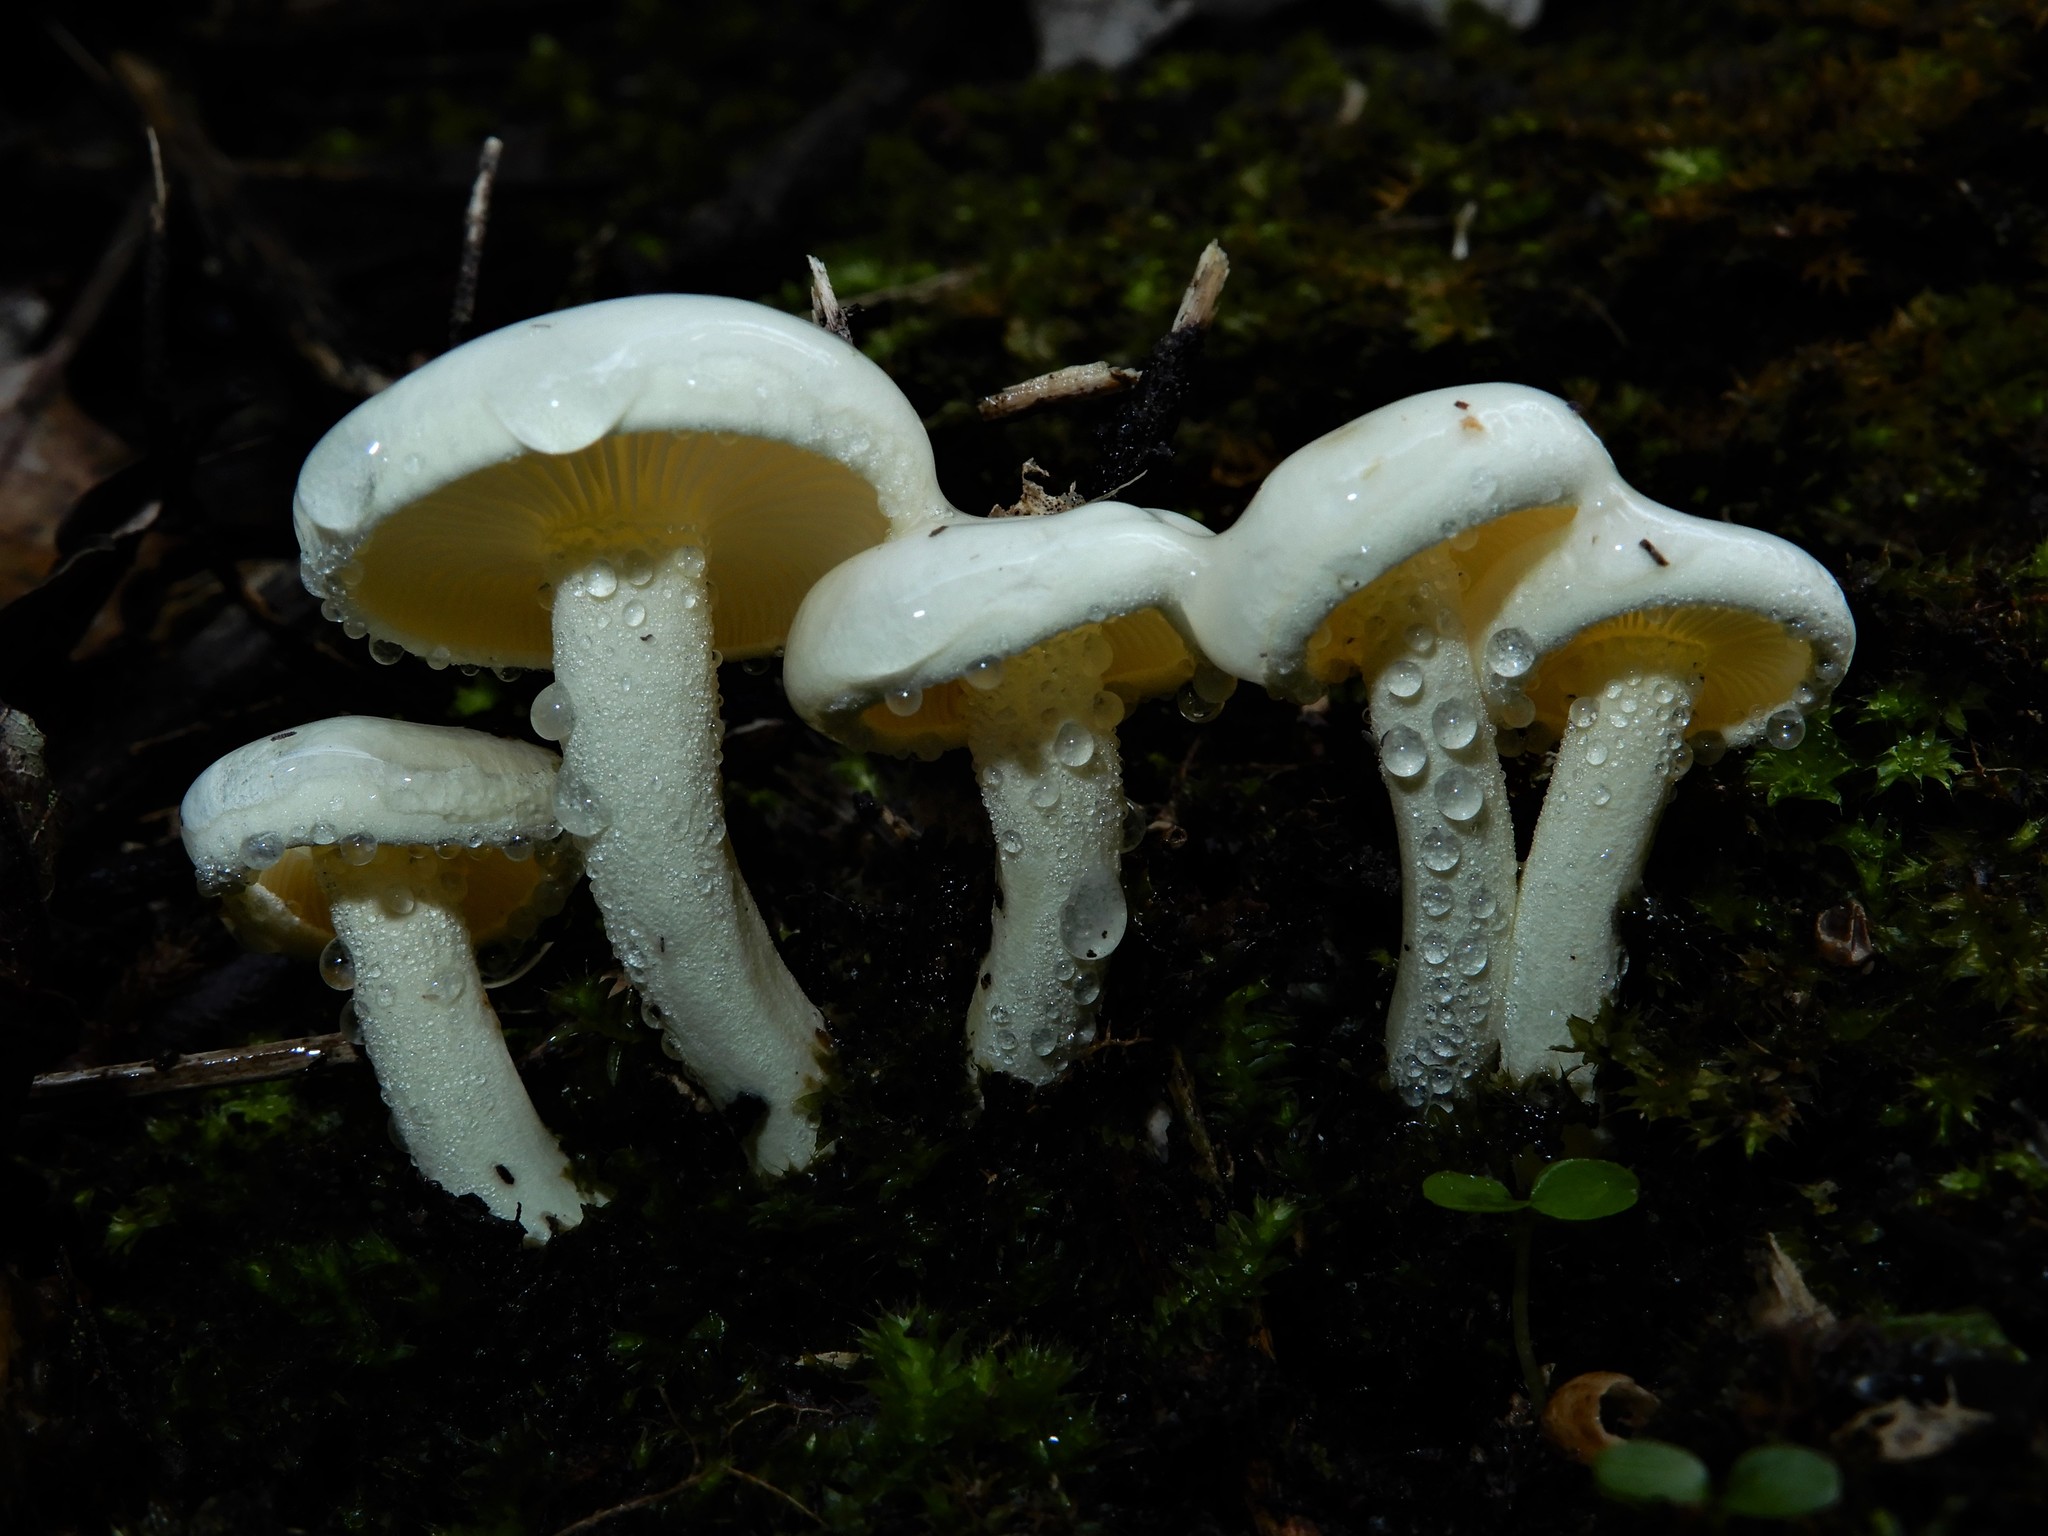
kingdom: Fungi
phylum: Basidiomycota
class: Agaricomycetes
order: Agaricales
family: Hygrophoraceae
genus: Hygrophorus
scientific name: Hygrophorus involutus
